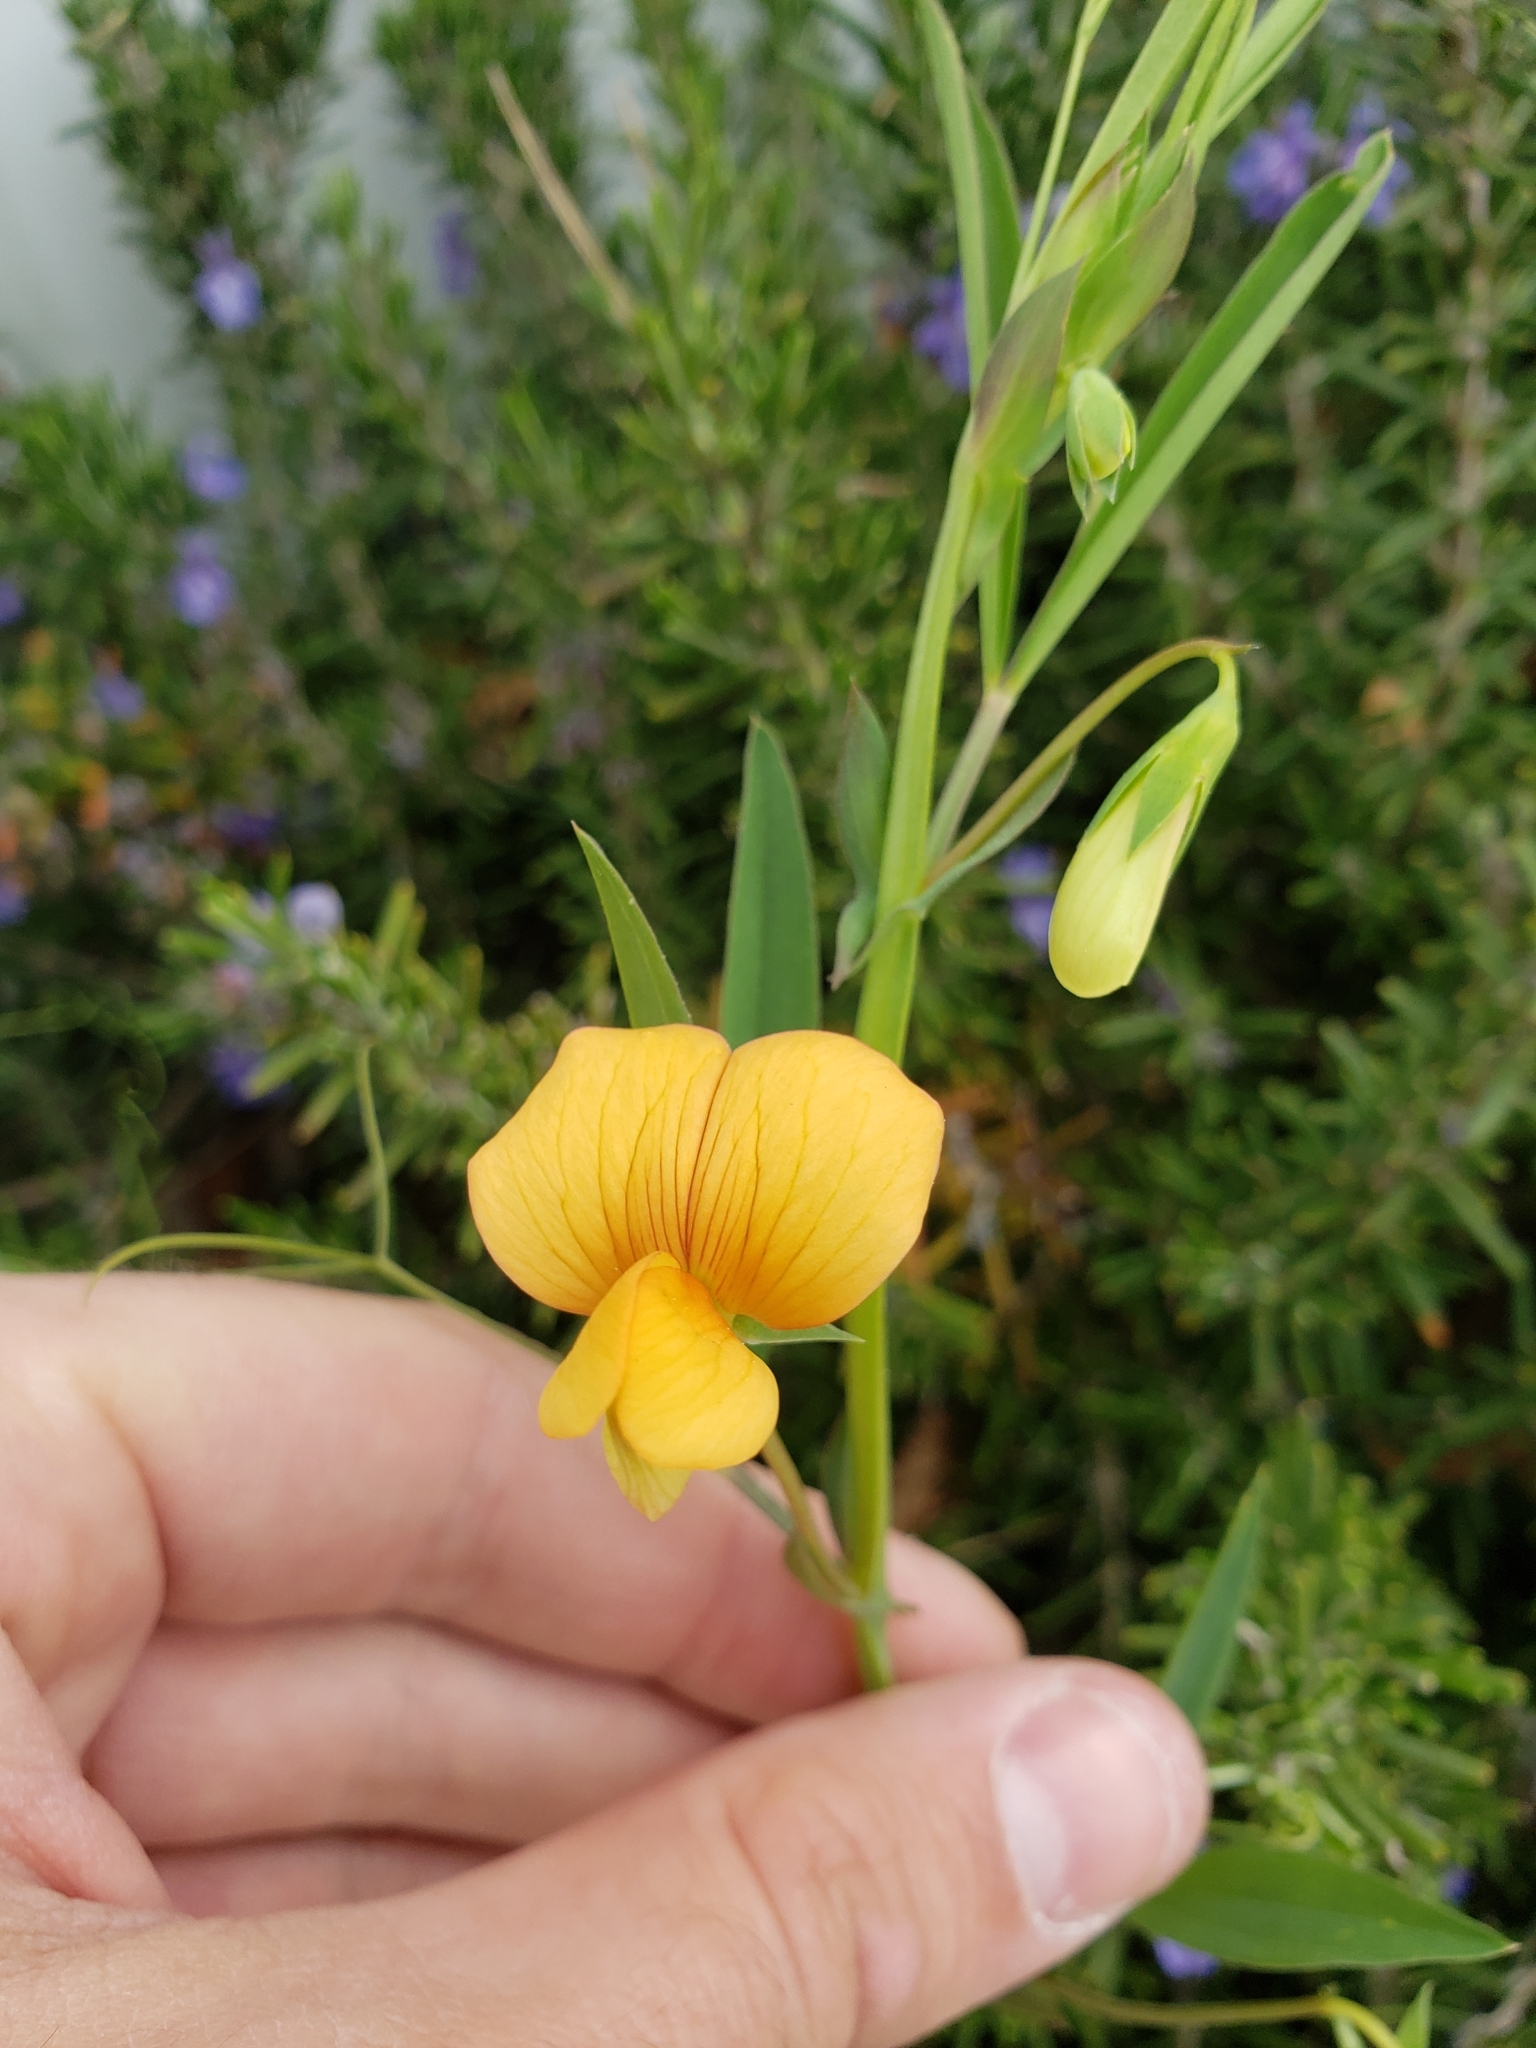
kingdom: Plantae
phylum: Tracheophyta
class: Magnoliopsida
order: Fabales
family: Fabaceae
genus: Lathyrus
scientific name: Lathyrus gorgoni
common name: Rare pea
